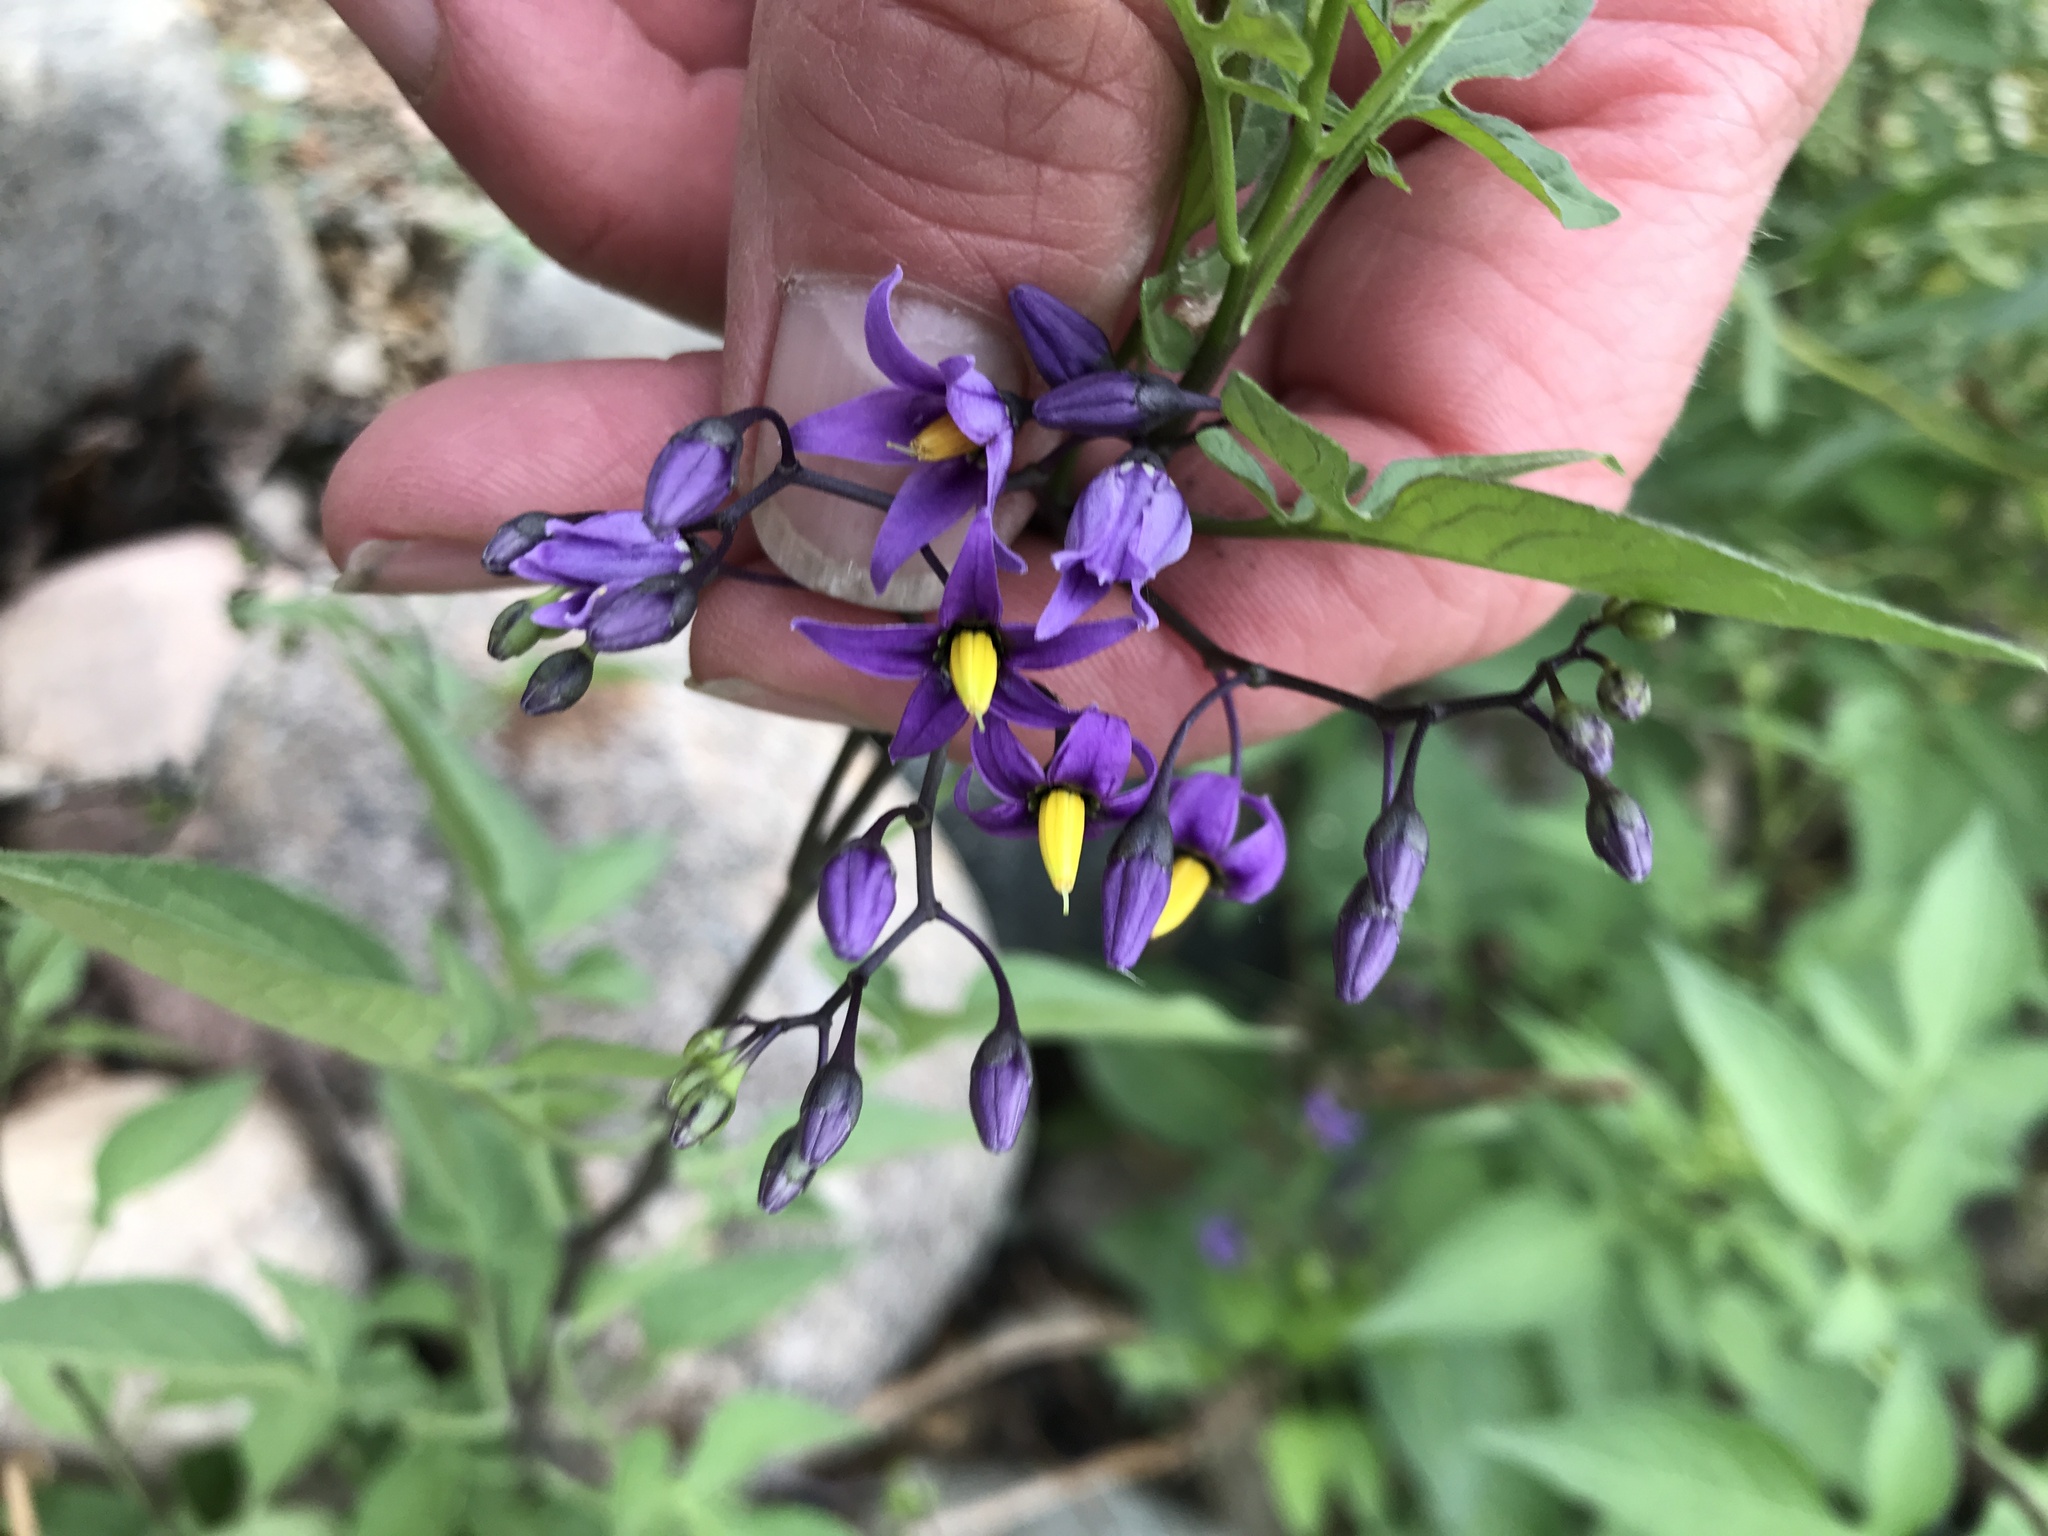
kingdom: Plantae
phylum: Tracheophyta
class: Magnoliopsida
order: Solanales
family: Solanaceae
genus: Solanum
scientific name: Solanum dulcamara
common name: Climbing nightshade
